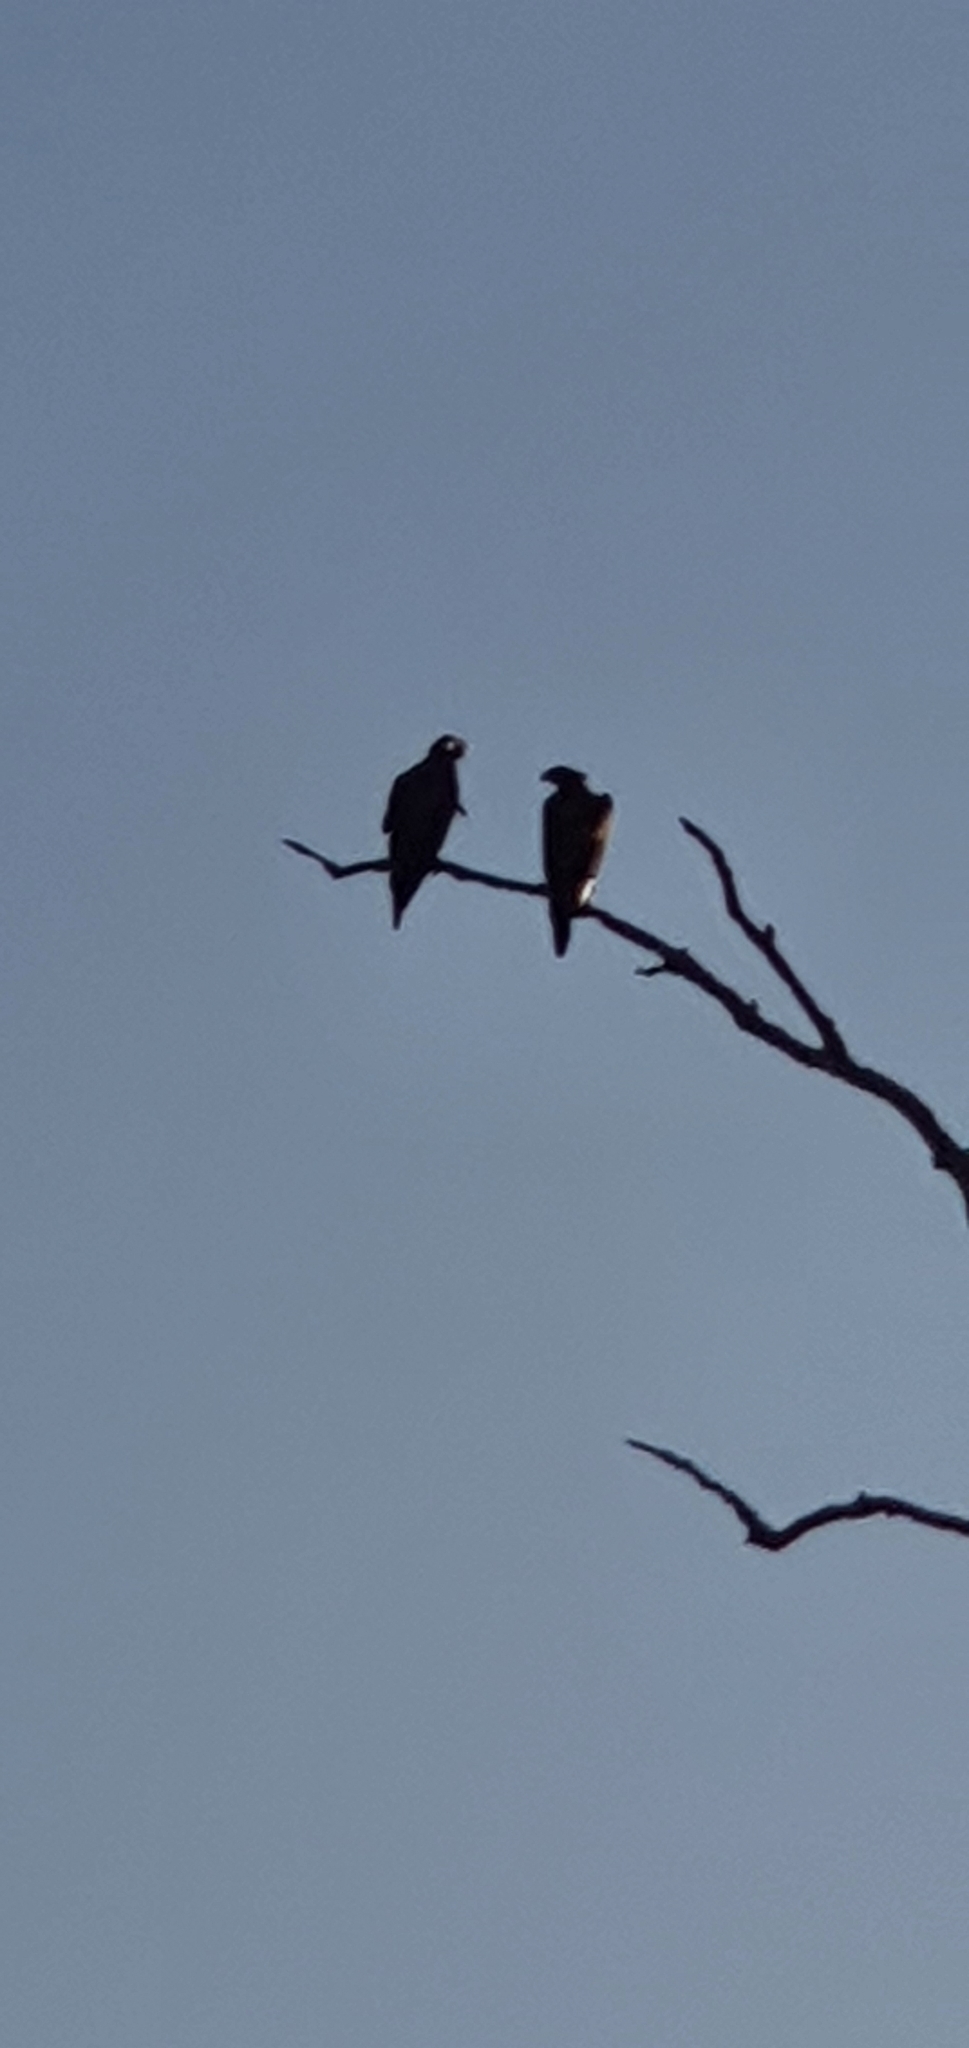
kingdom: Animalia
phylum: Chordata
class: Aves
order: Accipitriformes
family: Accipitridae
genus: Aquila
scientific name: Aquila audax
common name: Wedge-tailed eagle
